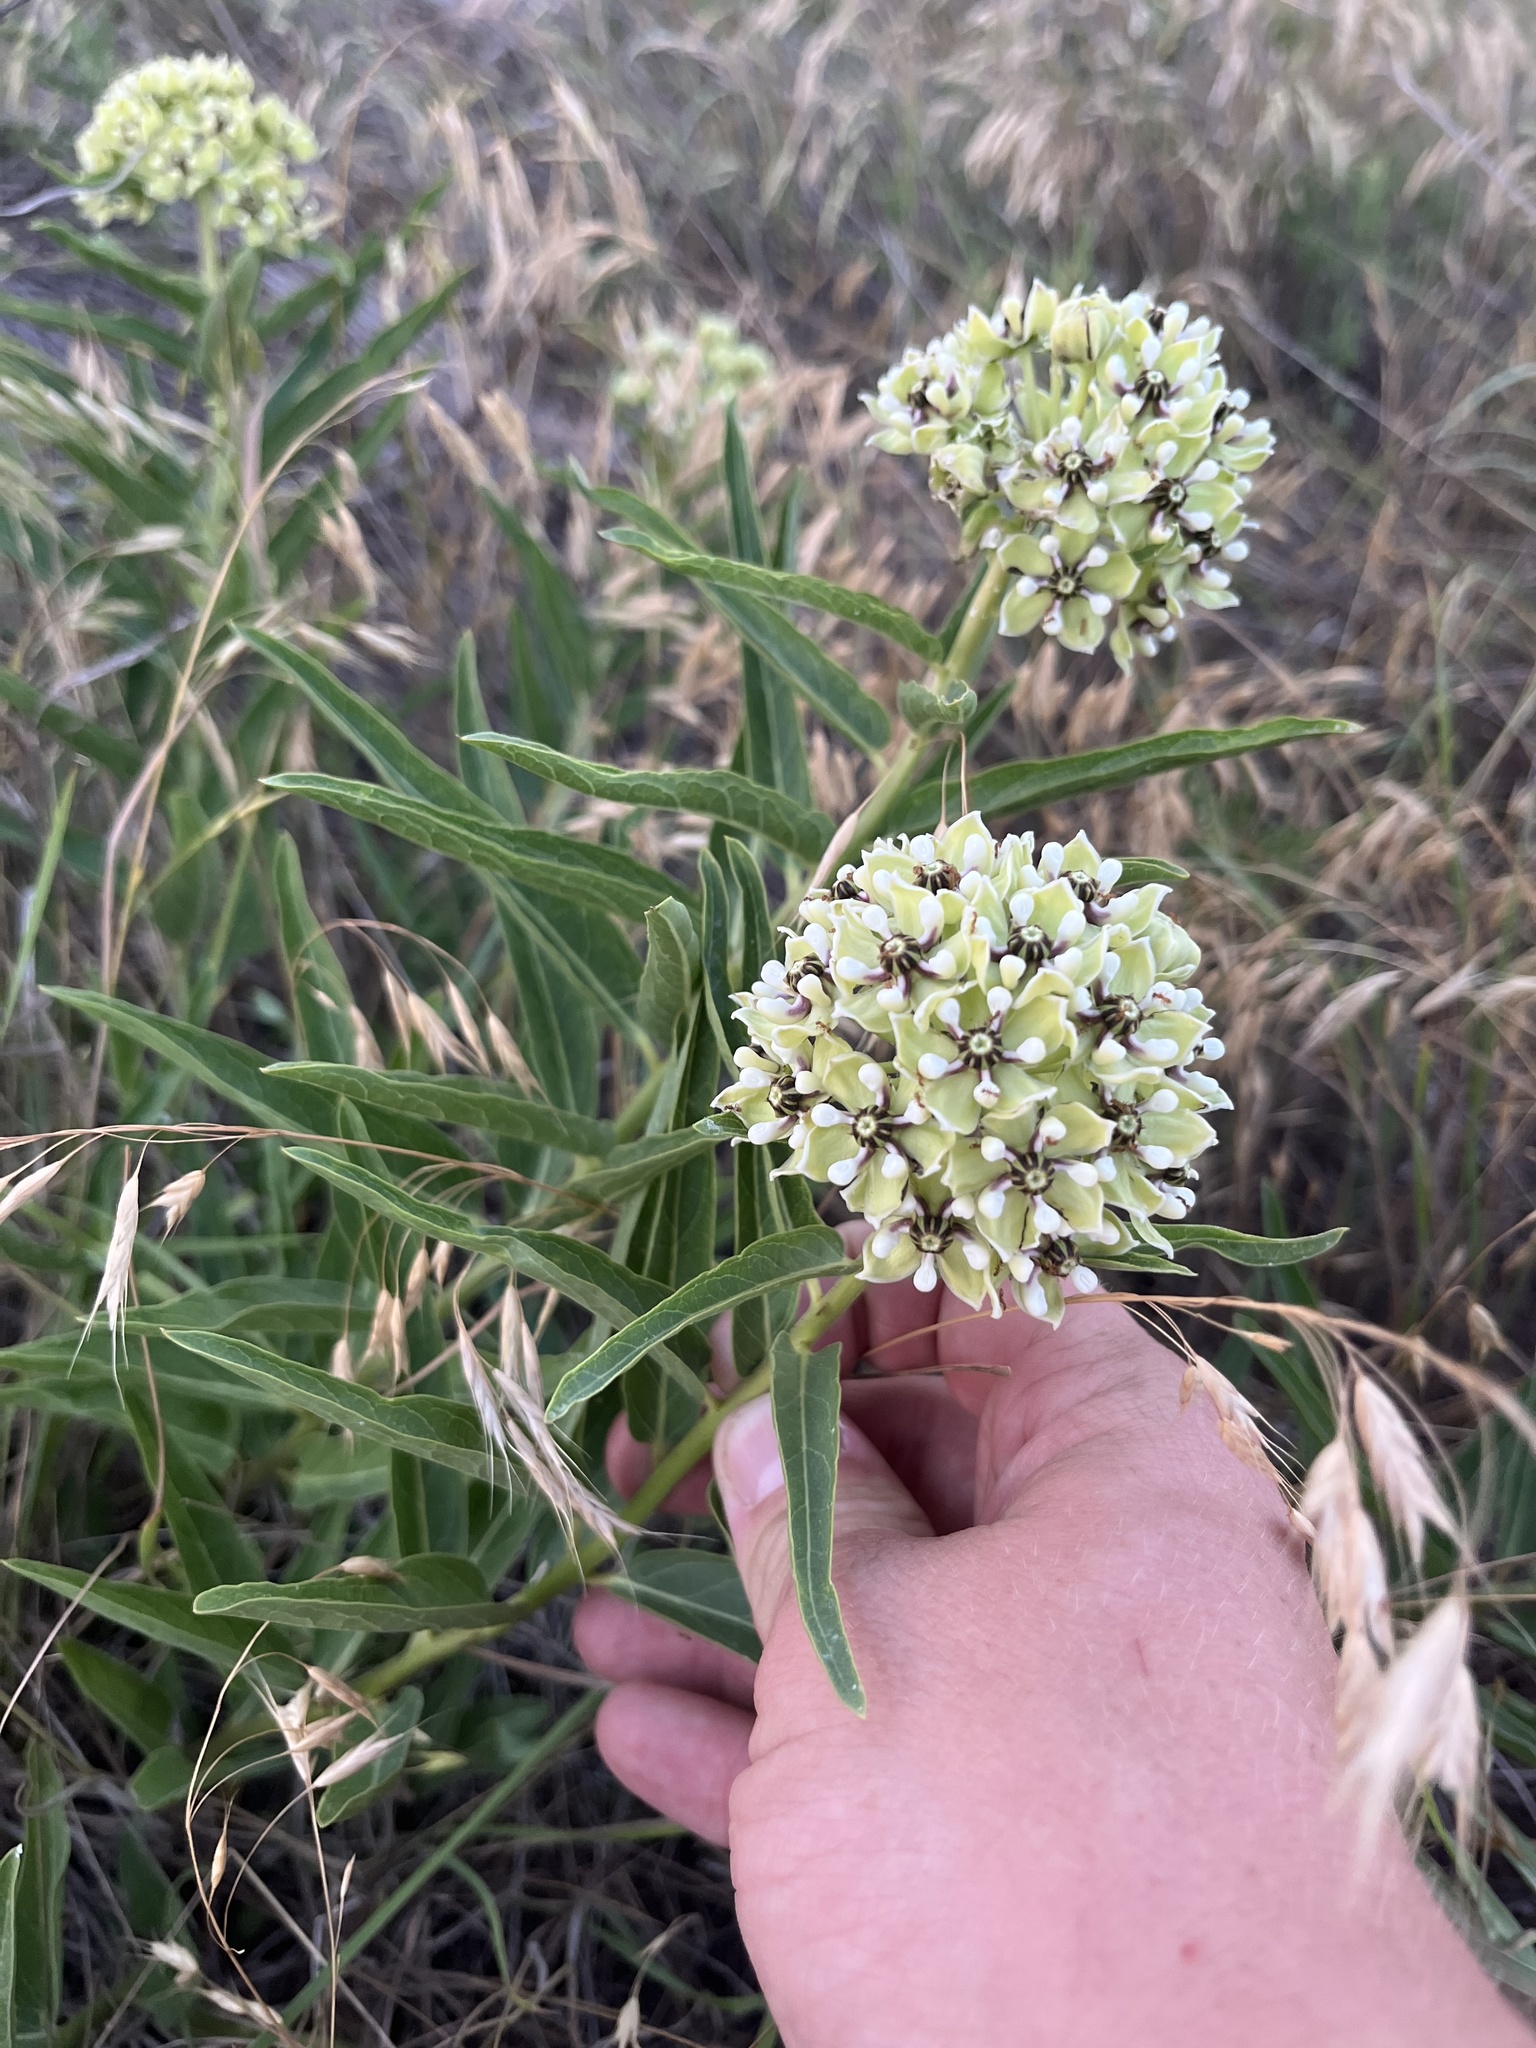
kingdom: Plantae
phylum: Tracheophyta
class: Magnoliopsida
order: Gentianales
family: Apocynaceae
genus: Asclepias
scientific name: Asclepias asperula
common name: Antelope horns
